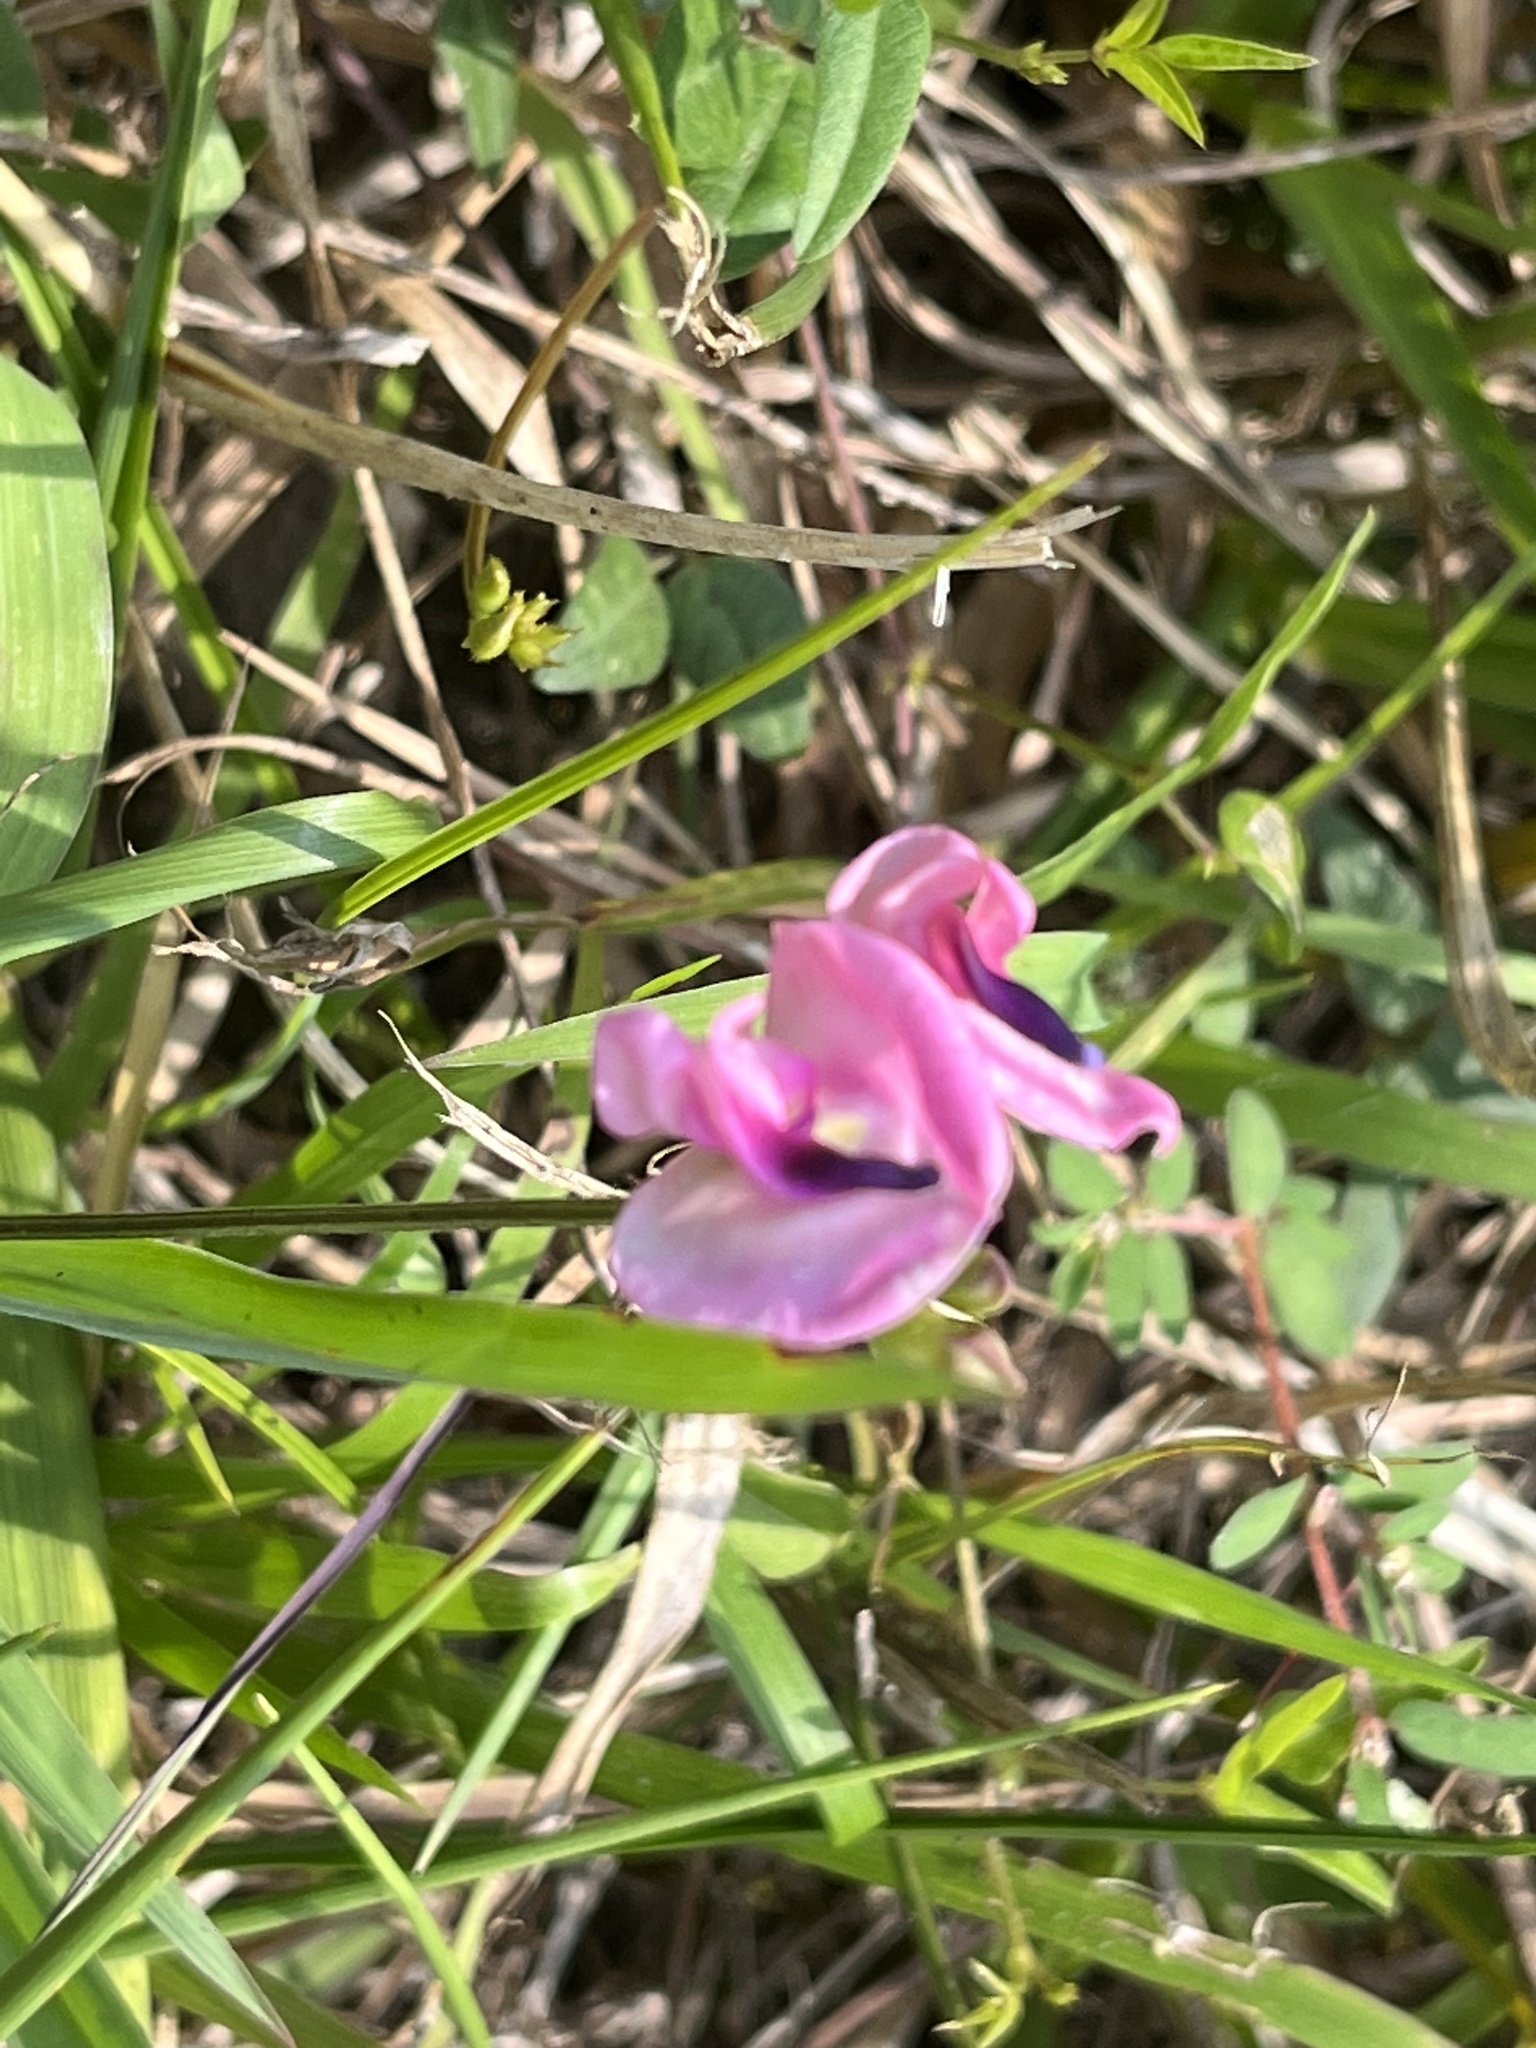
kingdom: Plantae
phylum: Tracheophyta
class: Magnoliopsida
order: Fabales
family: Fabaceae
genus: Strophostyles
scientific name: Strophostyles umbellata
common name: Perennial wild bean
